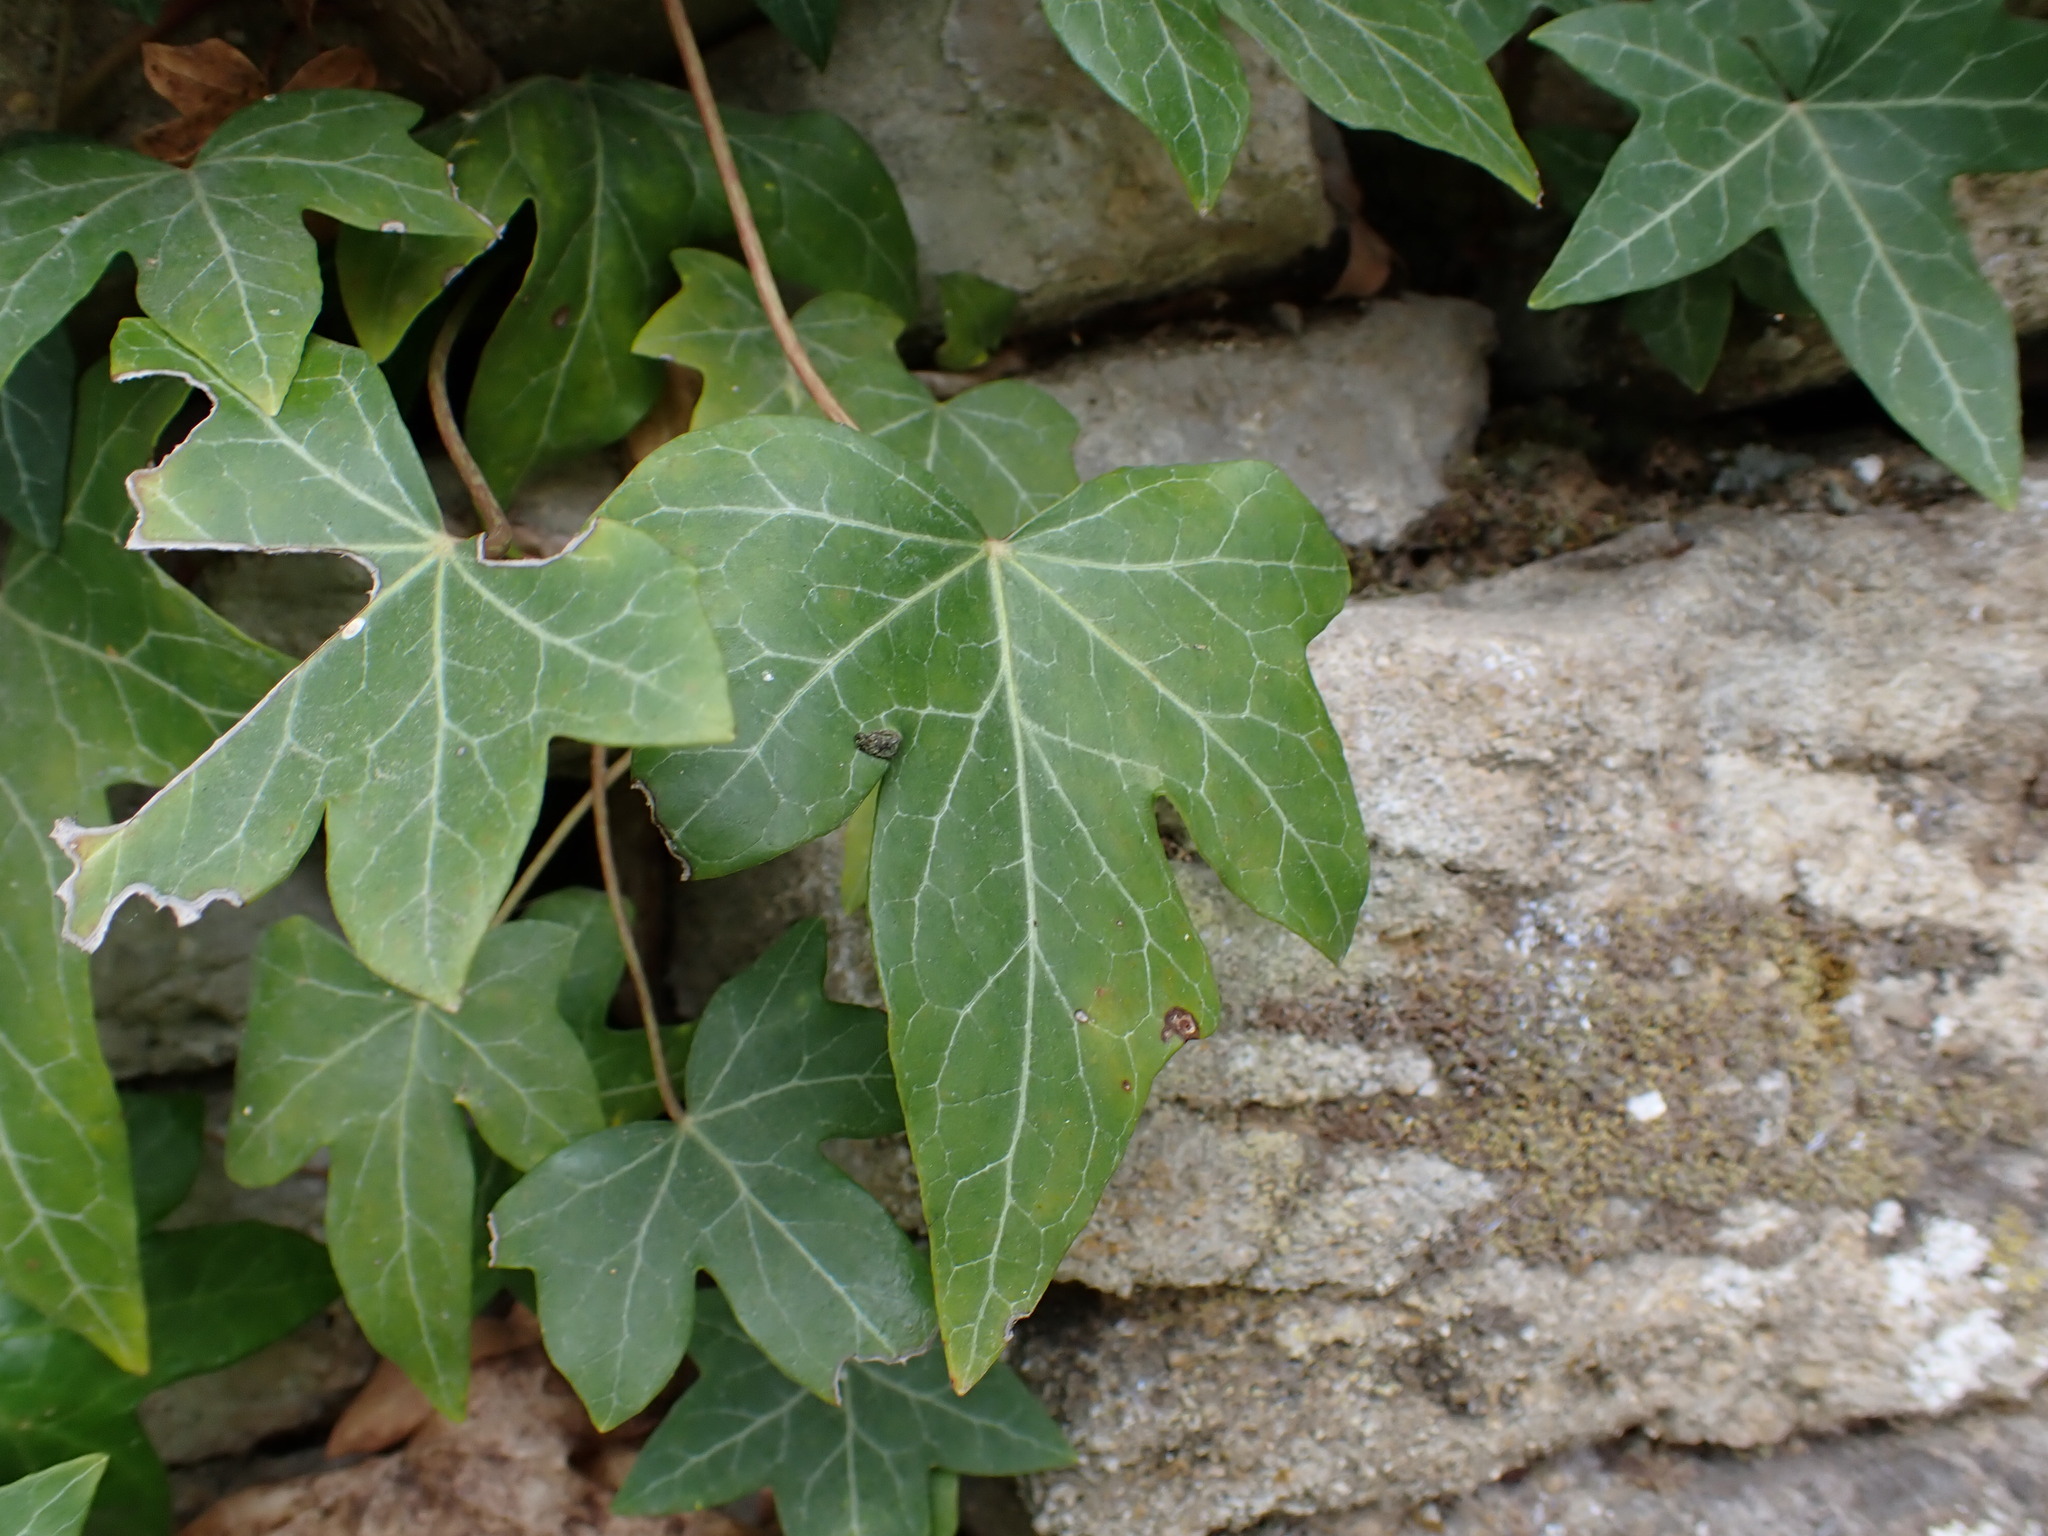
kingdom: Plantae
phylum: Tracheophyta
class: Magnoliopsida
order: Apiales
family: Araliaceae
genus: Hedera
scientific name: Hedera helix
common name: Ivy
